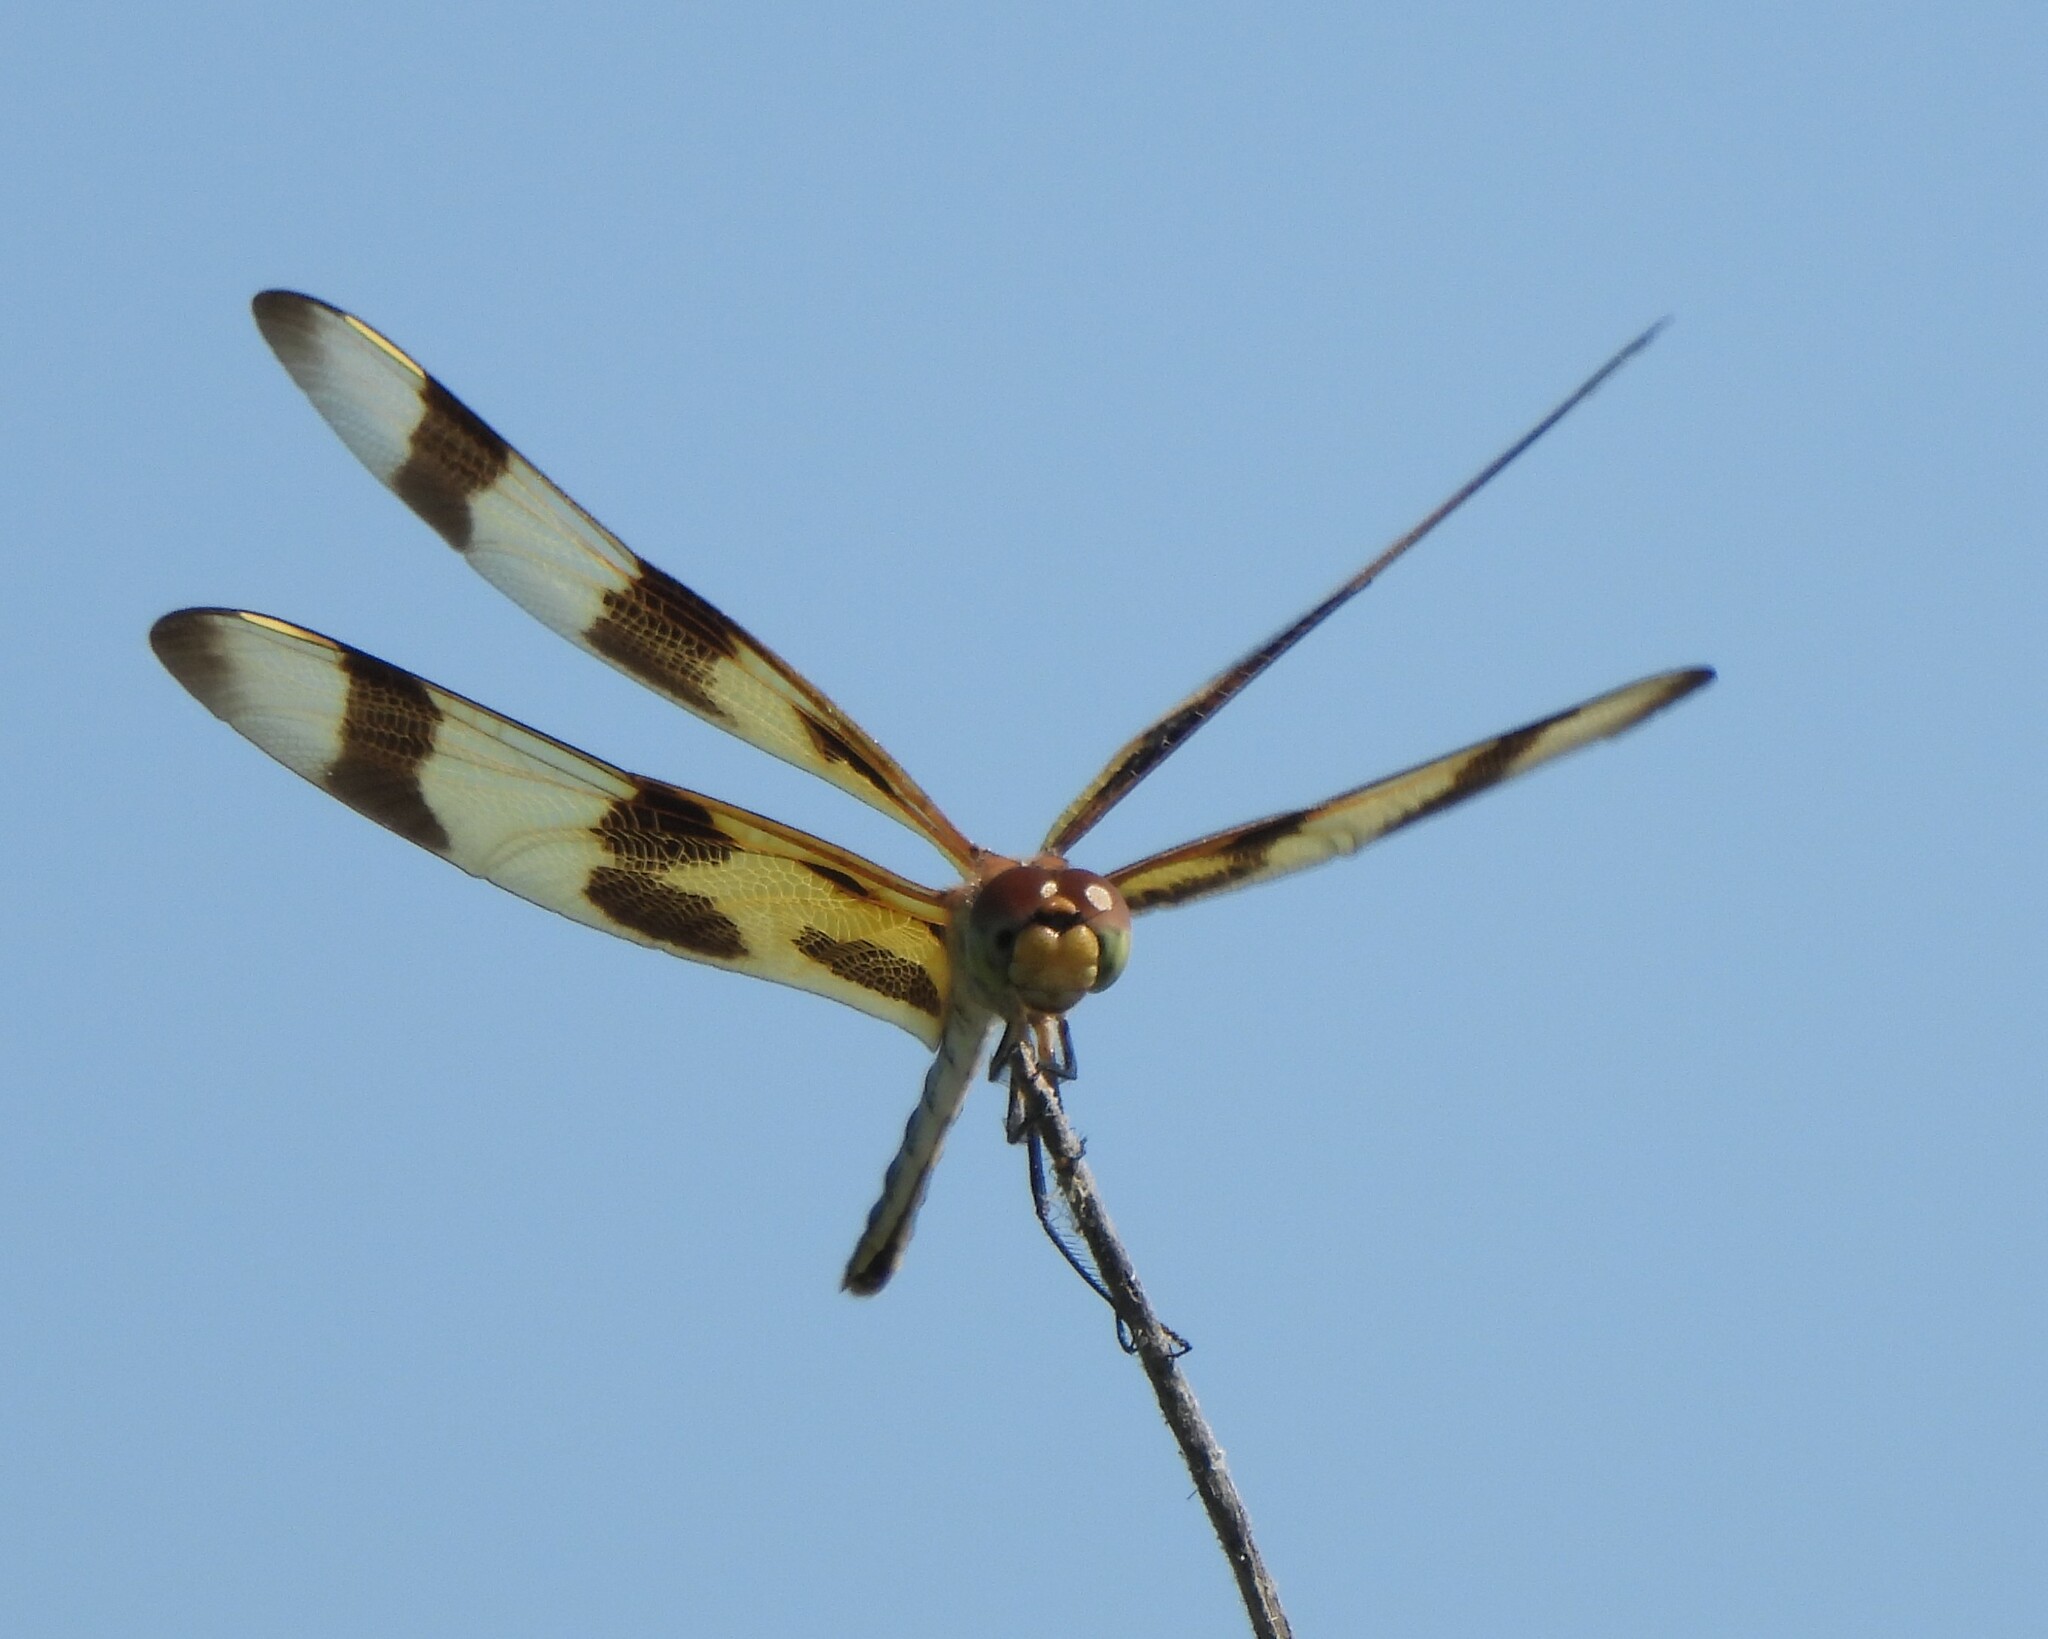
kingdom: Animalia
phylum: Arthropoda
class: Insecta
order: Odonata
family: Libellulidae
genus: Celithemis
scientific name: Celithemis eponina
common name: Halloween pennant
